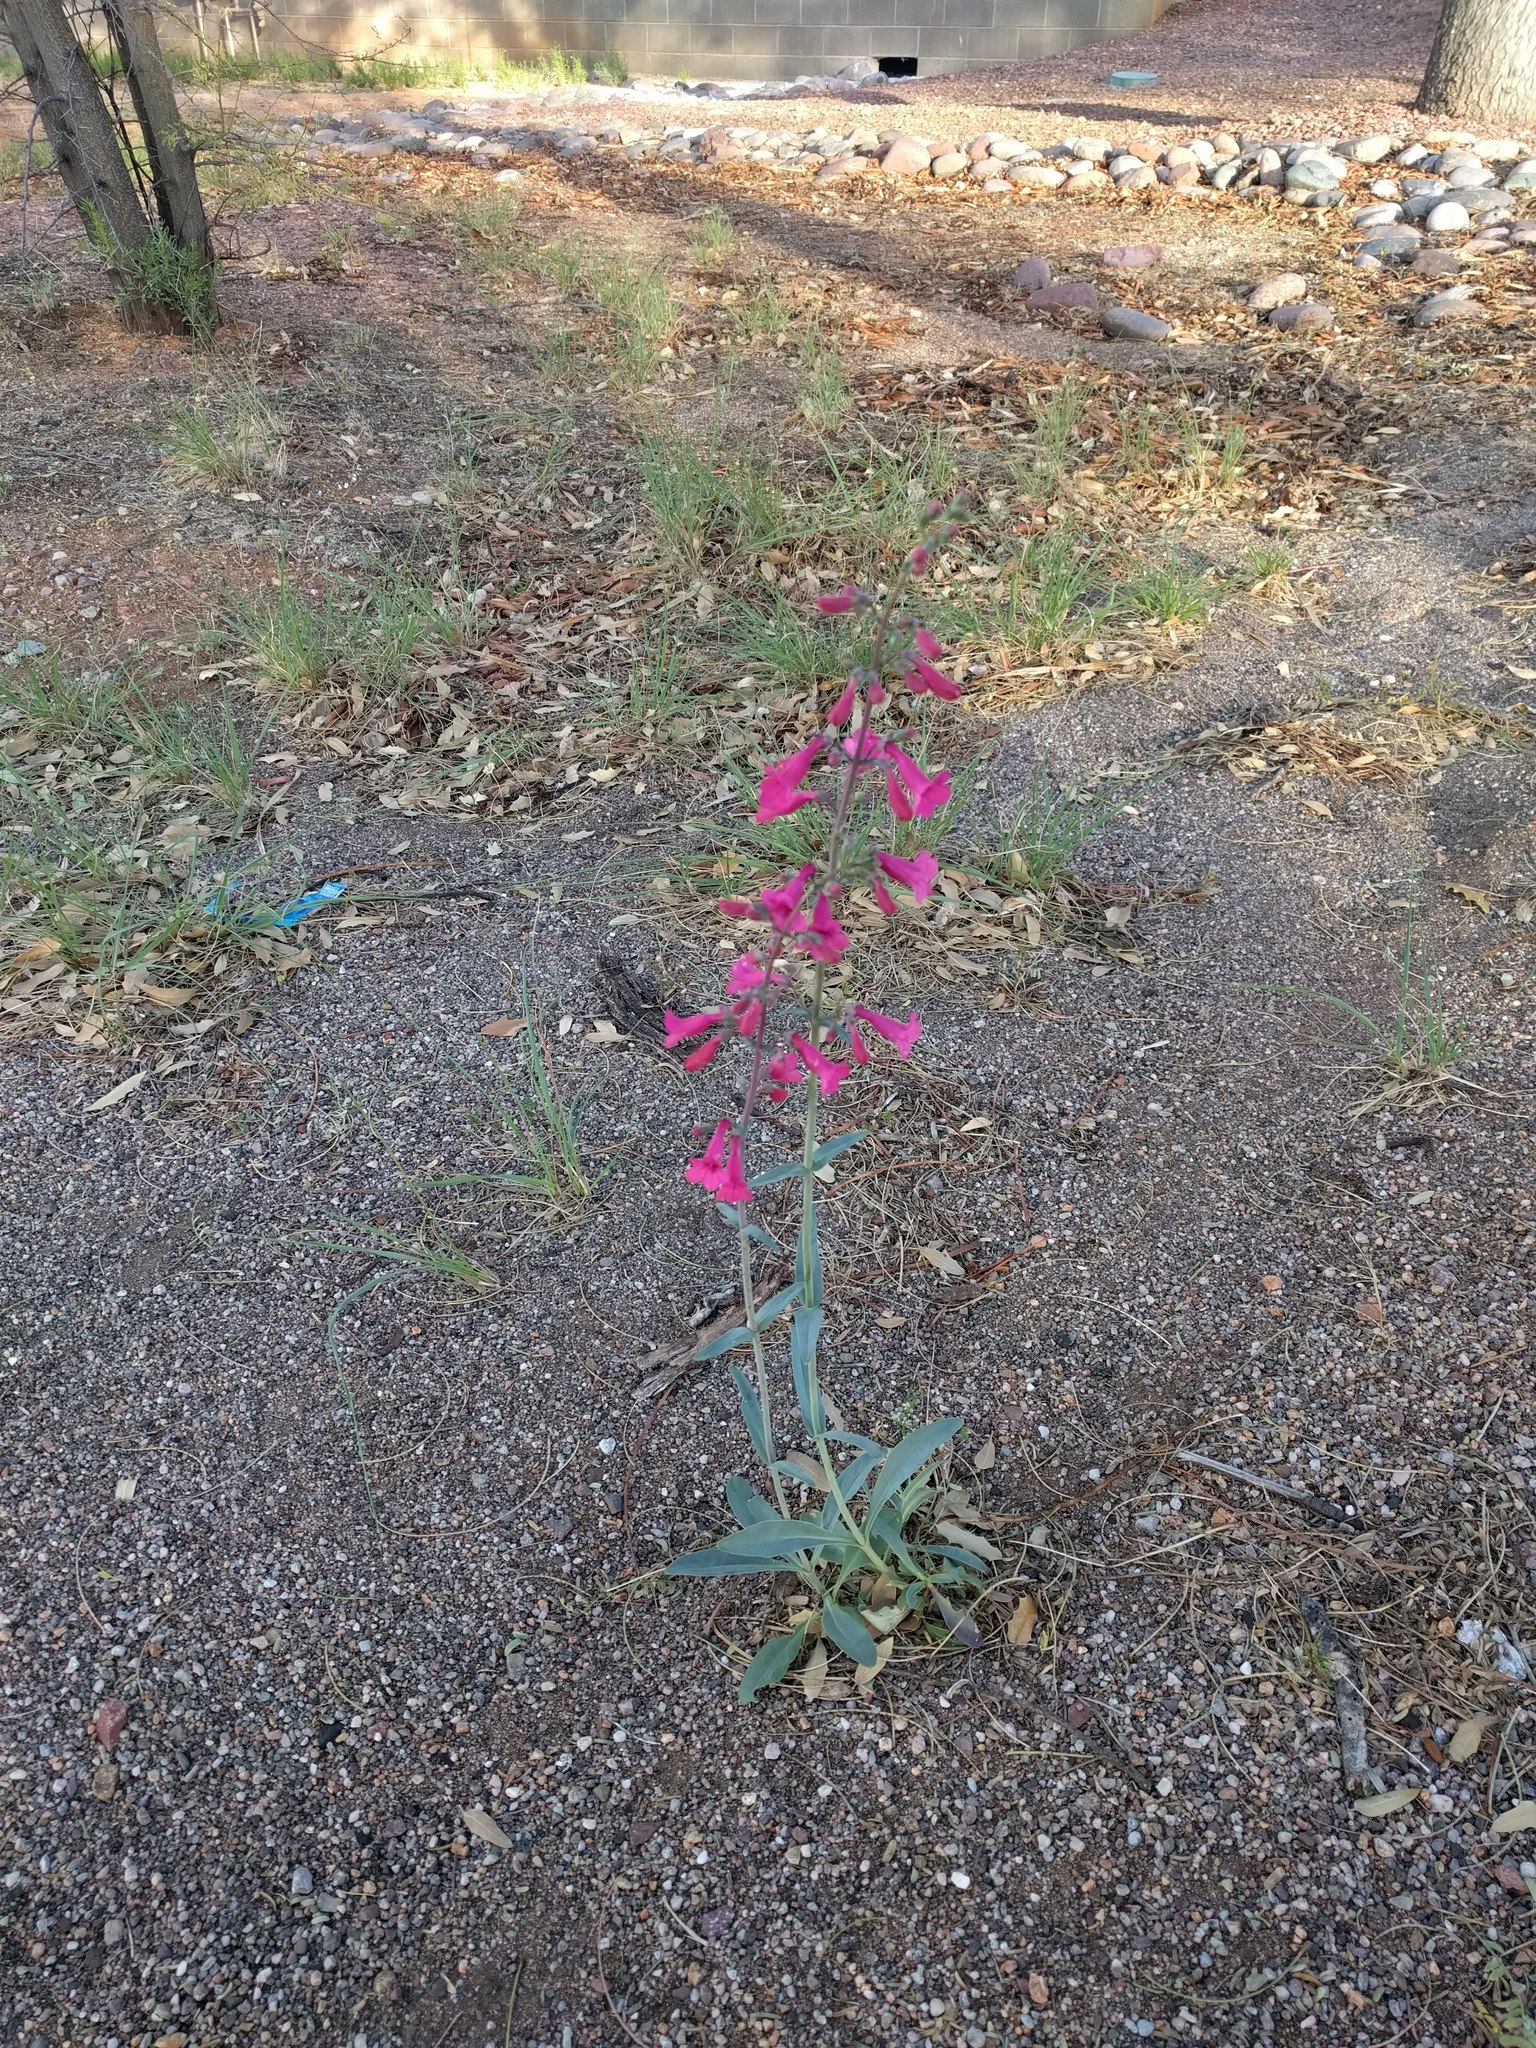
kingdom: Plantae
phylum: Tracheophyta
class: Magnoliopsida
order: Lamiales
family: Plantaginaceae
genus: Penstemon
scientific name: Penstemon parryi
